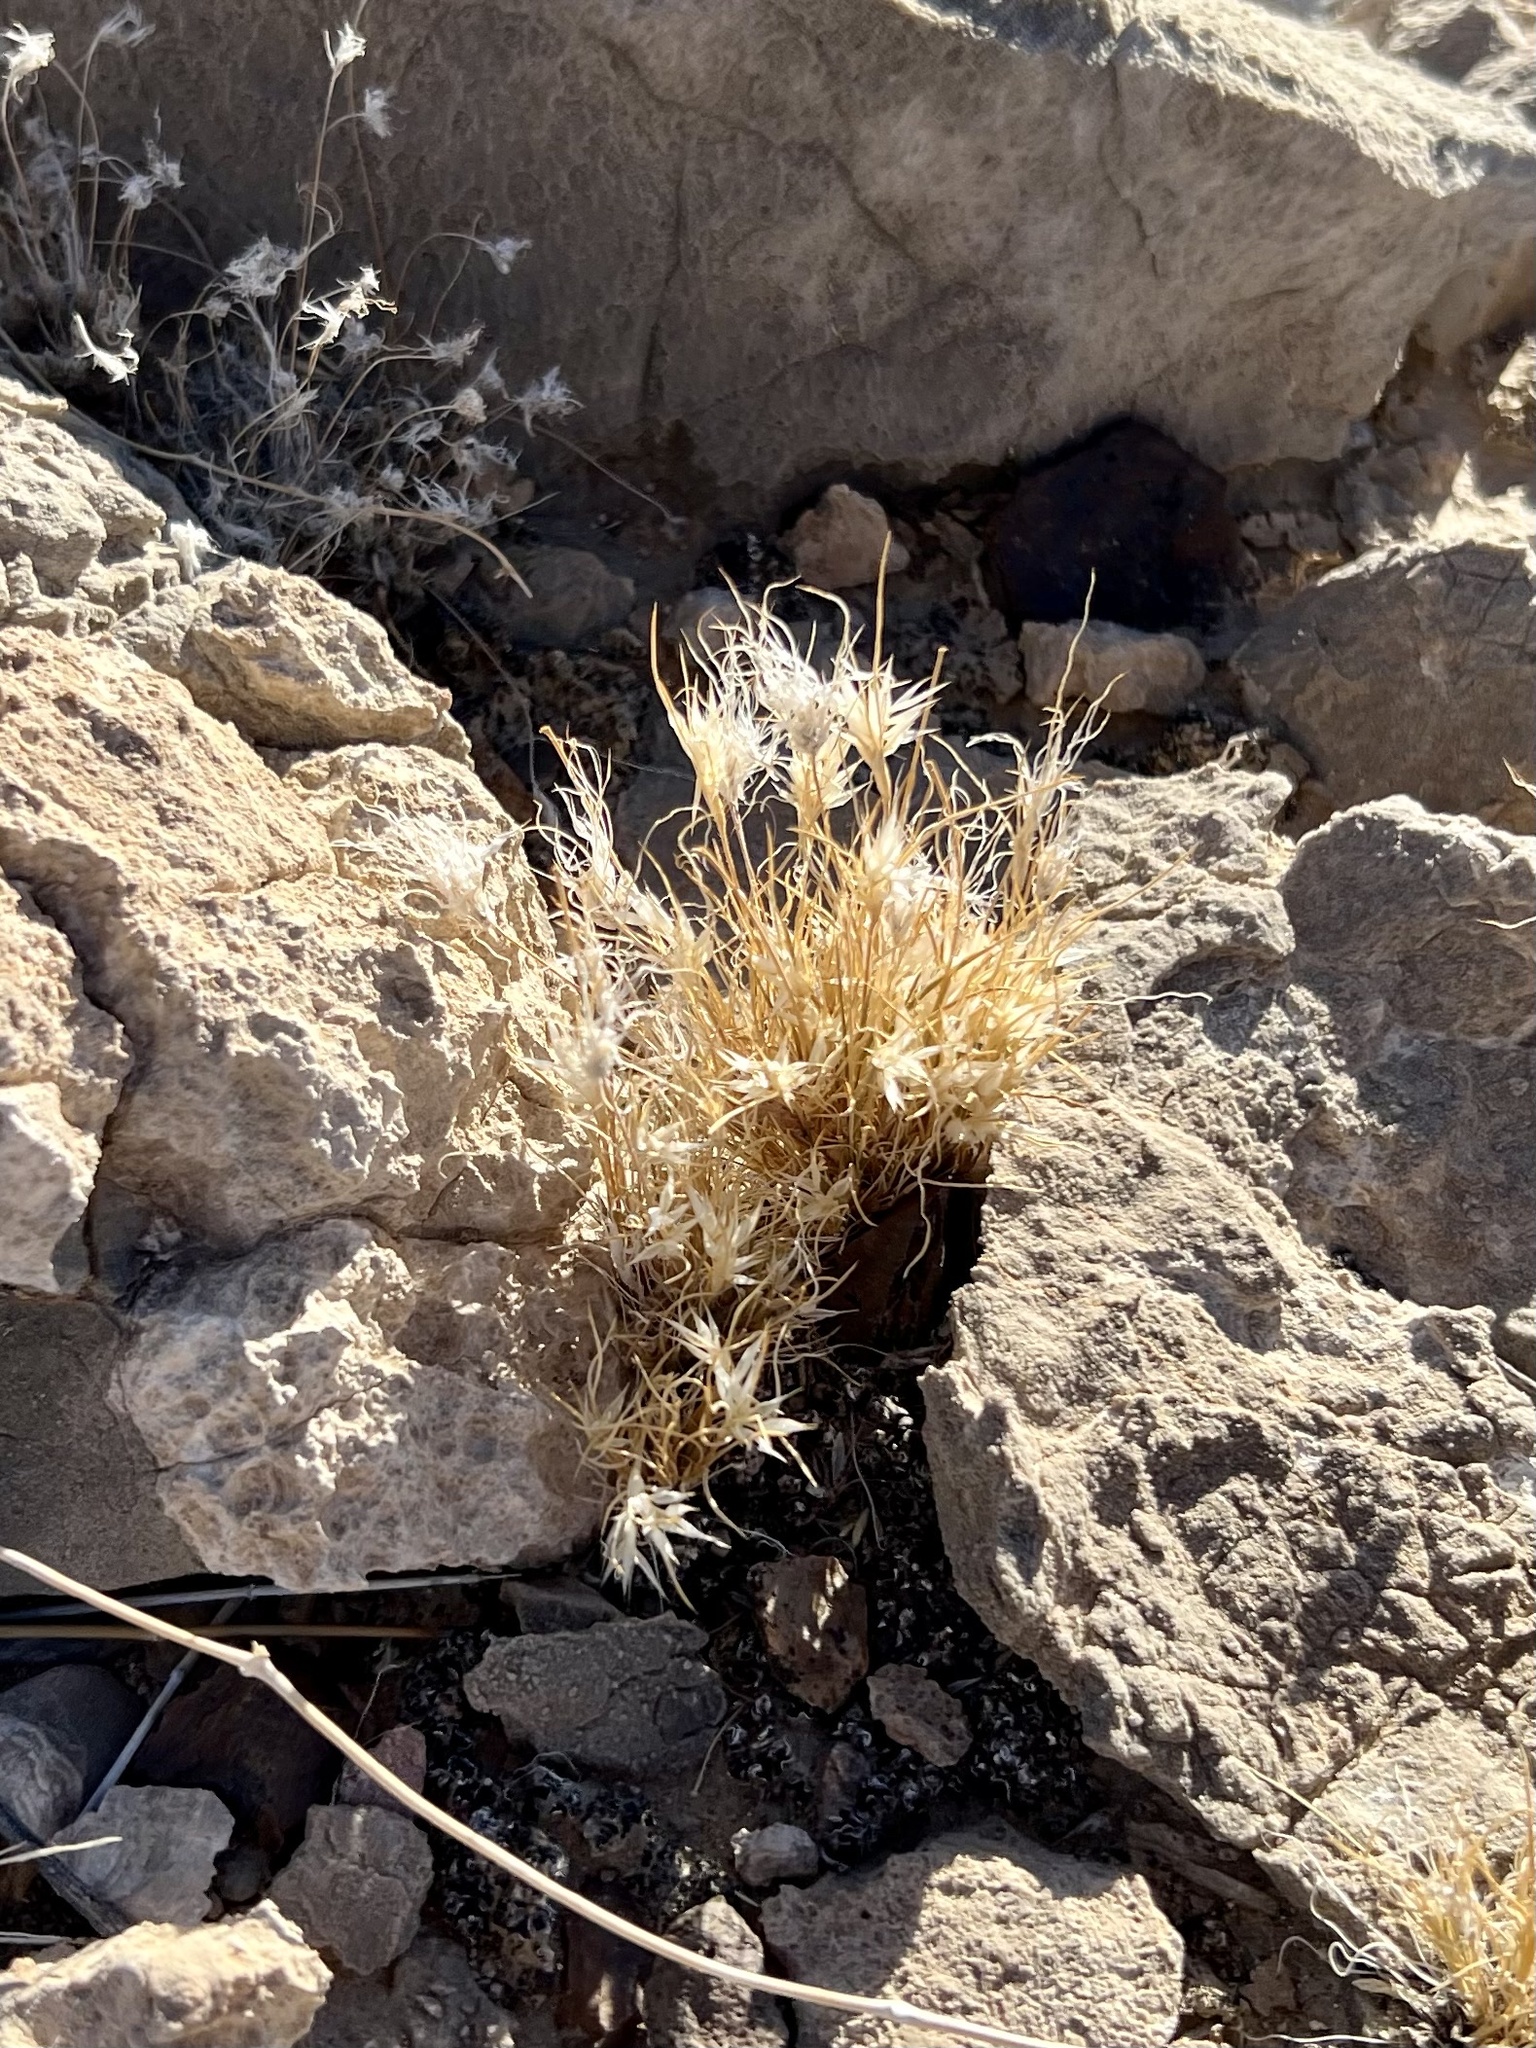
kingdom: Plantae
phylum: Tracheophyta
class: Liliopsida
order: Poales
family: Poaceae
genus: Dasyochloa
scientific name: Dasyochloa pulchella
